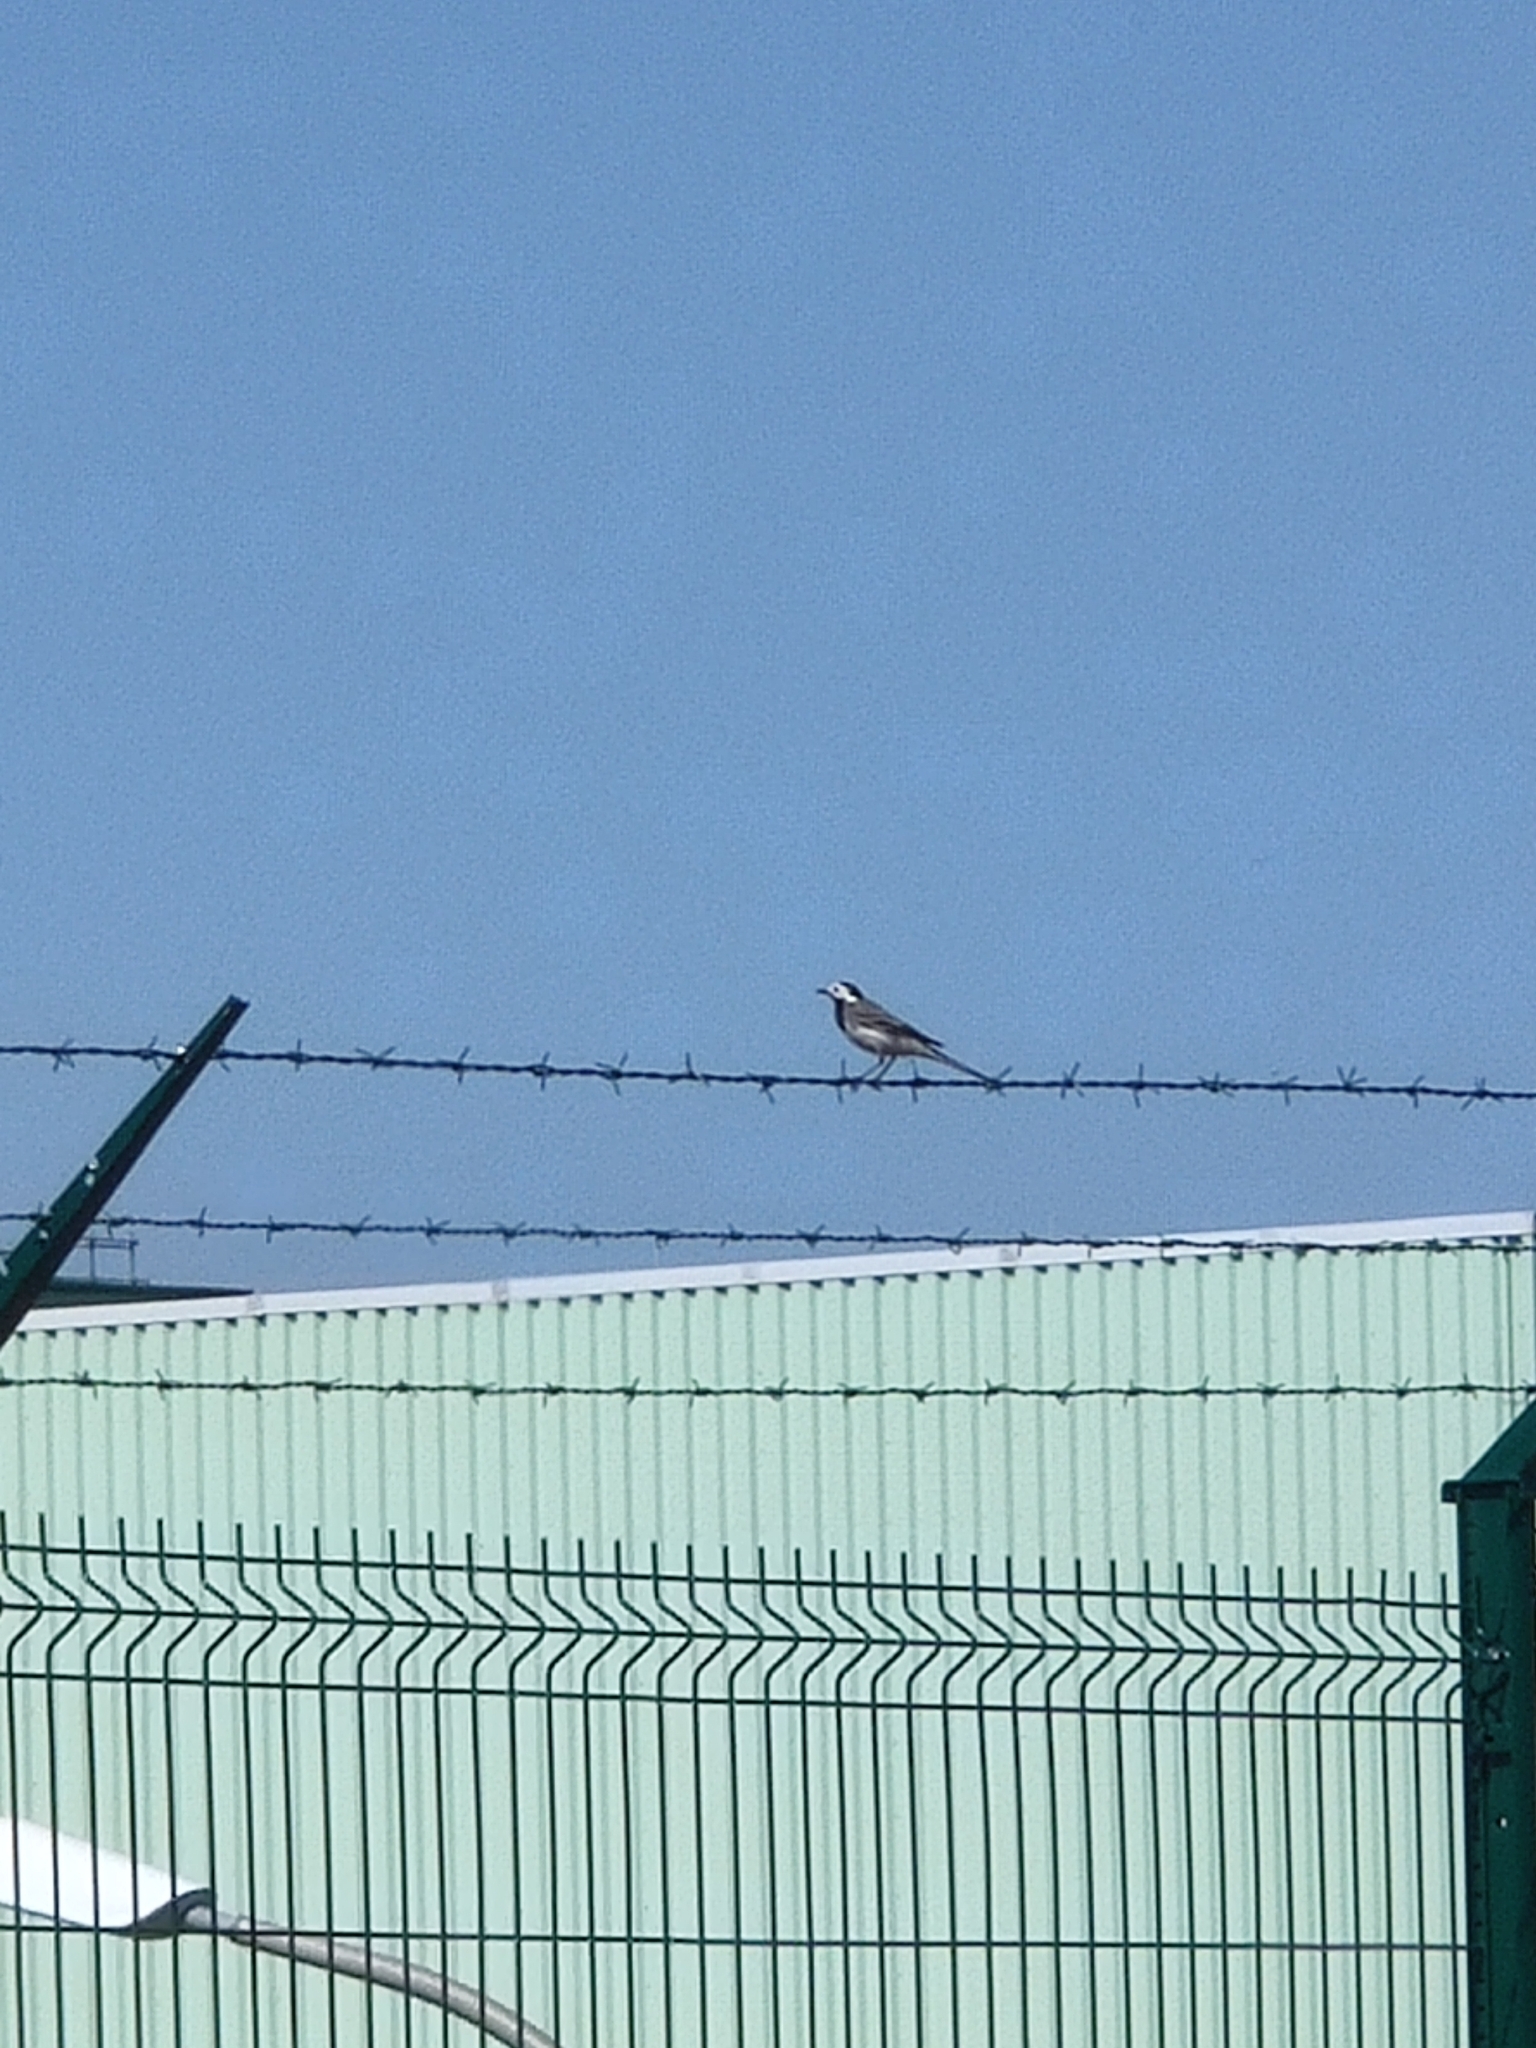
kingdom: Animalia
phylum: Chordata
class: Aves
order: Passeriformes
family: Motacillidae
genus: Motacilla
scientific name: Motacilla alba
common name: White wagtail
